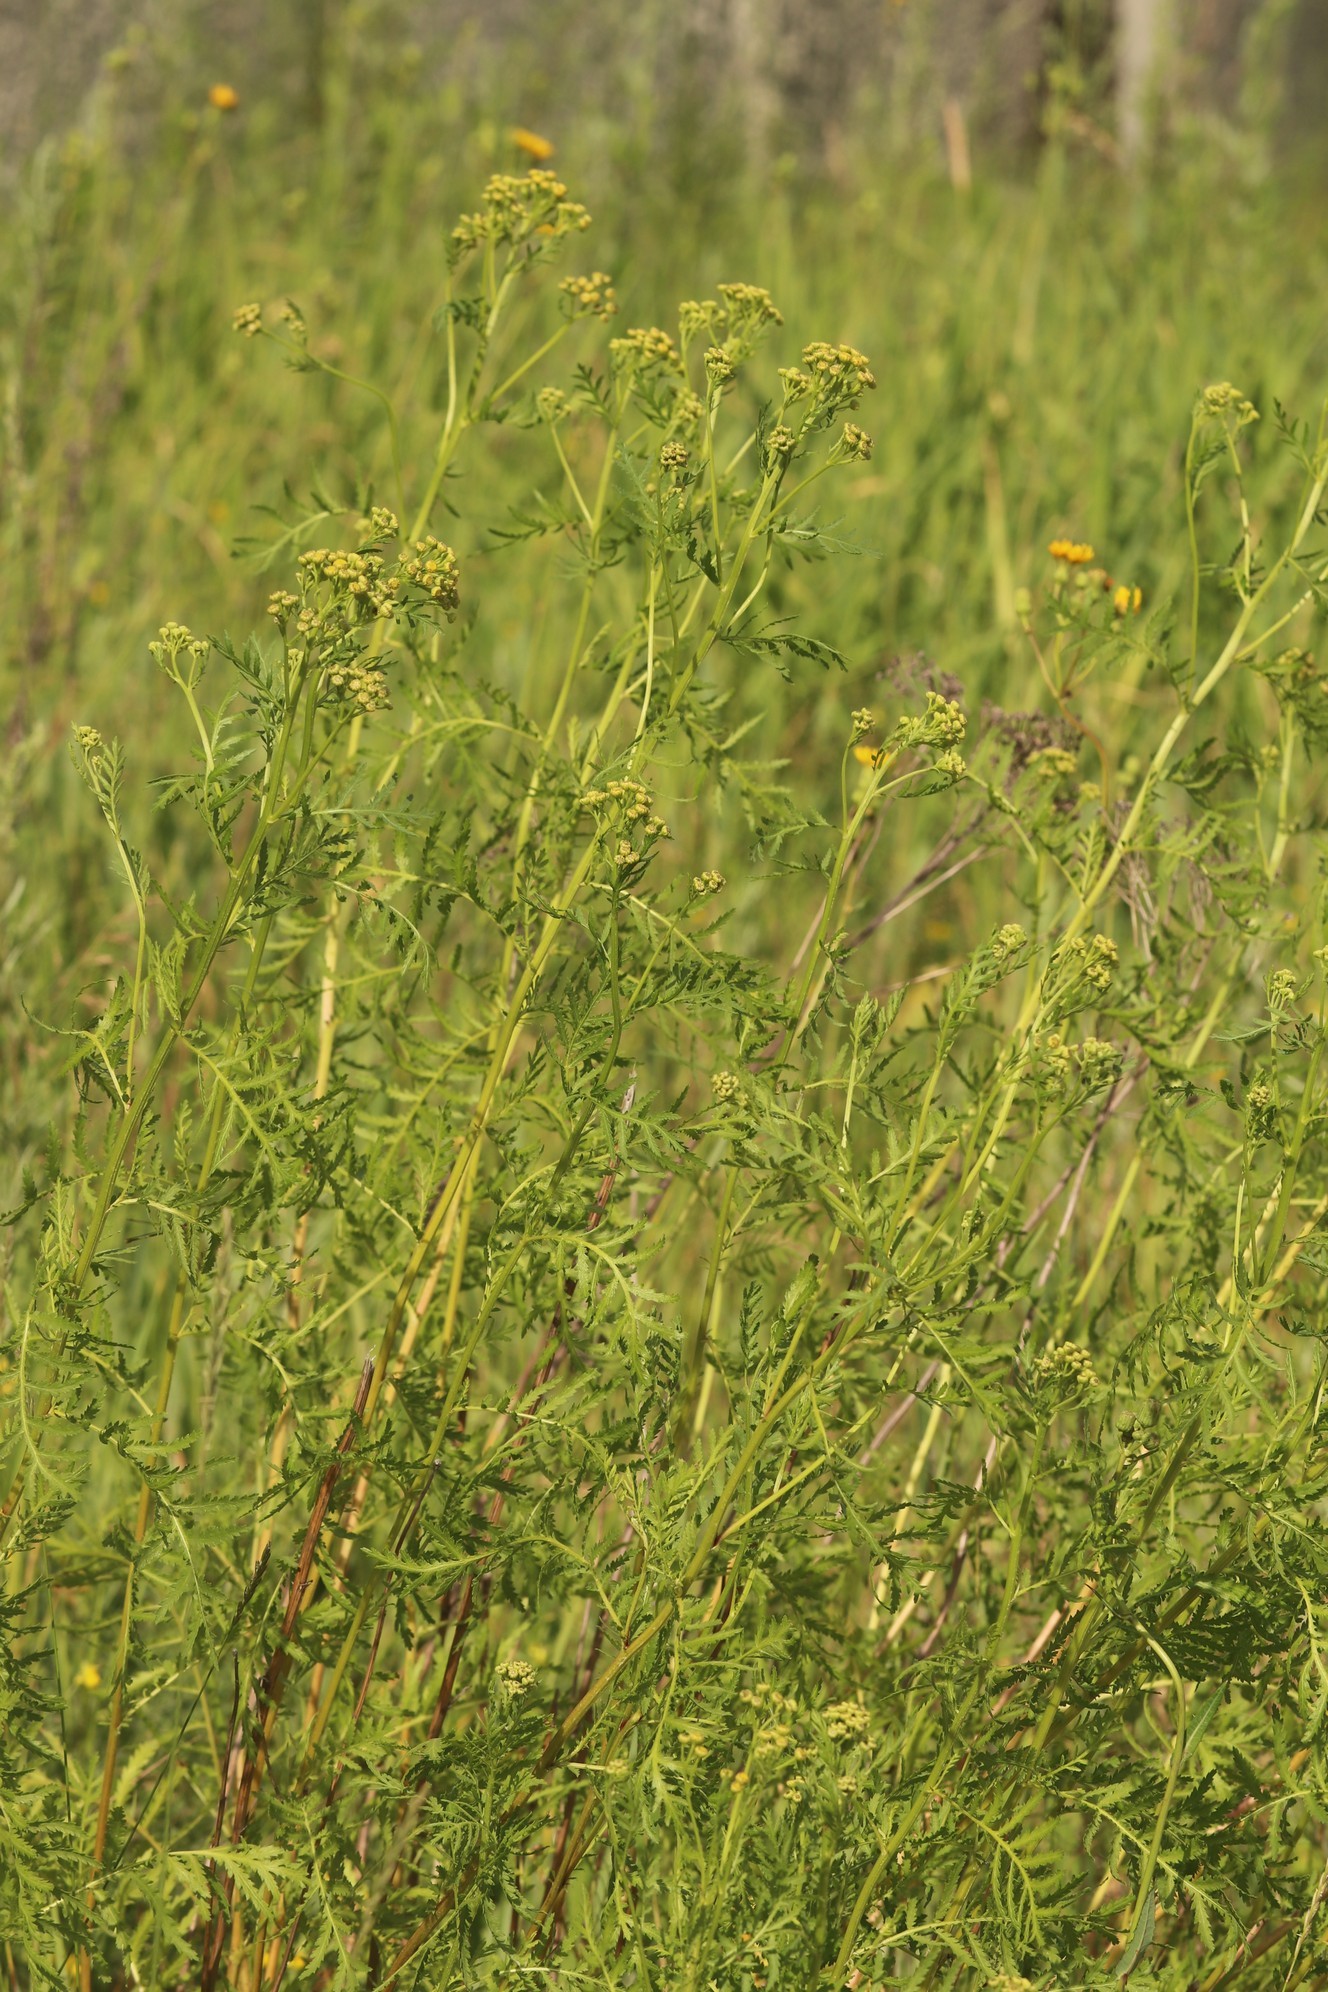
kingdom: Plantae
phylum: Tracheophyta
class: Magnoliopsida
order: Asterales
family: Asteraceae
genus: Tanacetum
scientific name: Tanacetum vulgare
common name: Common tansy
